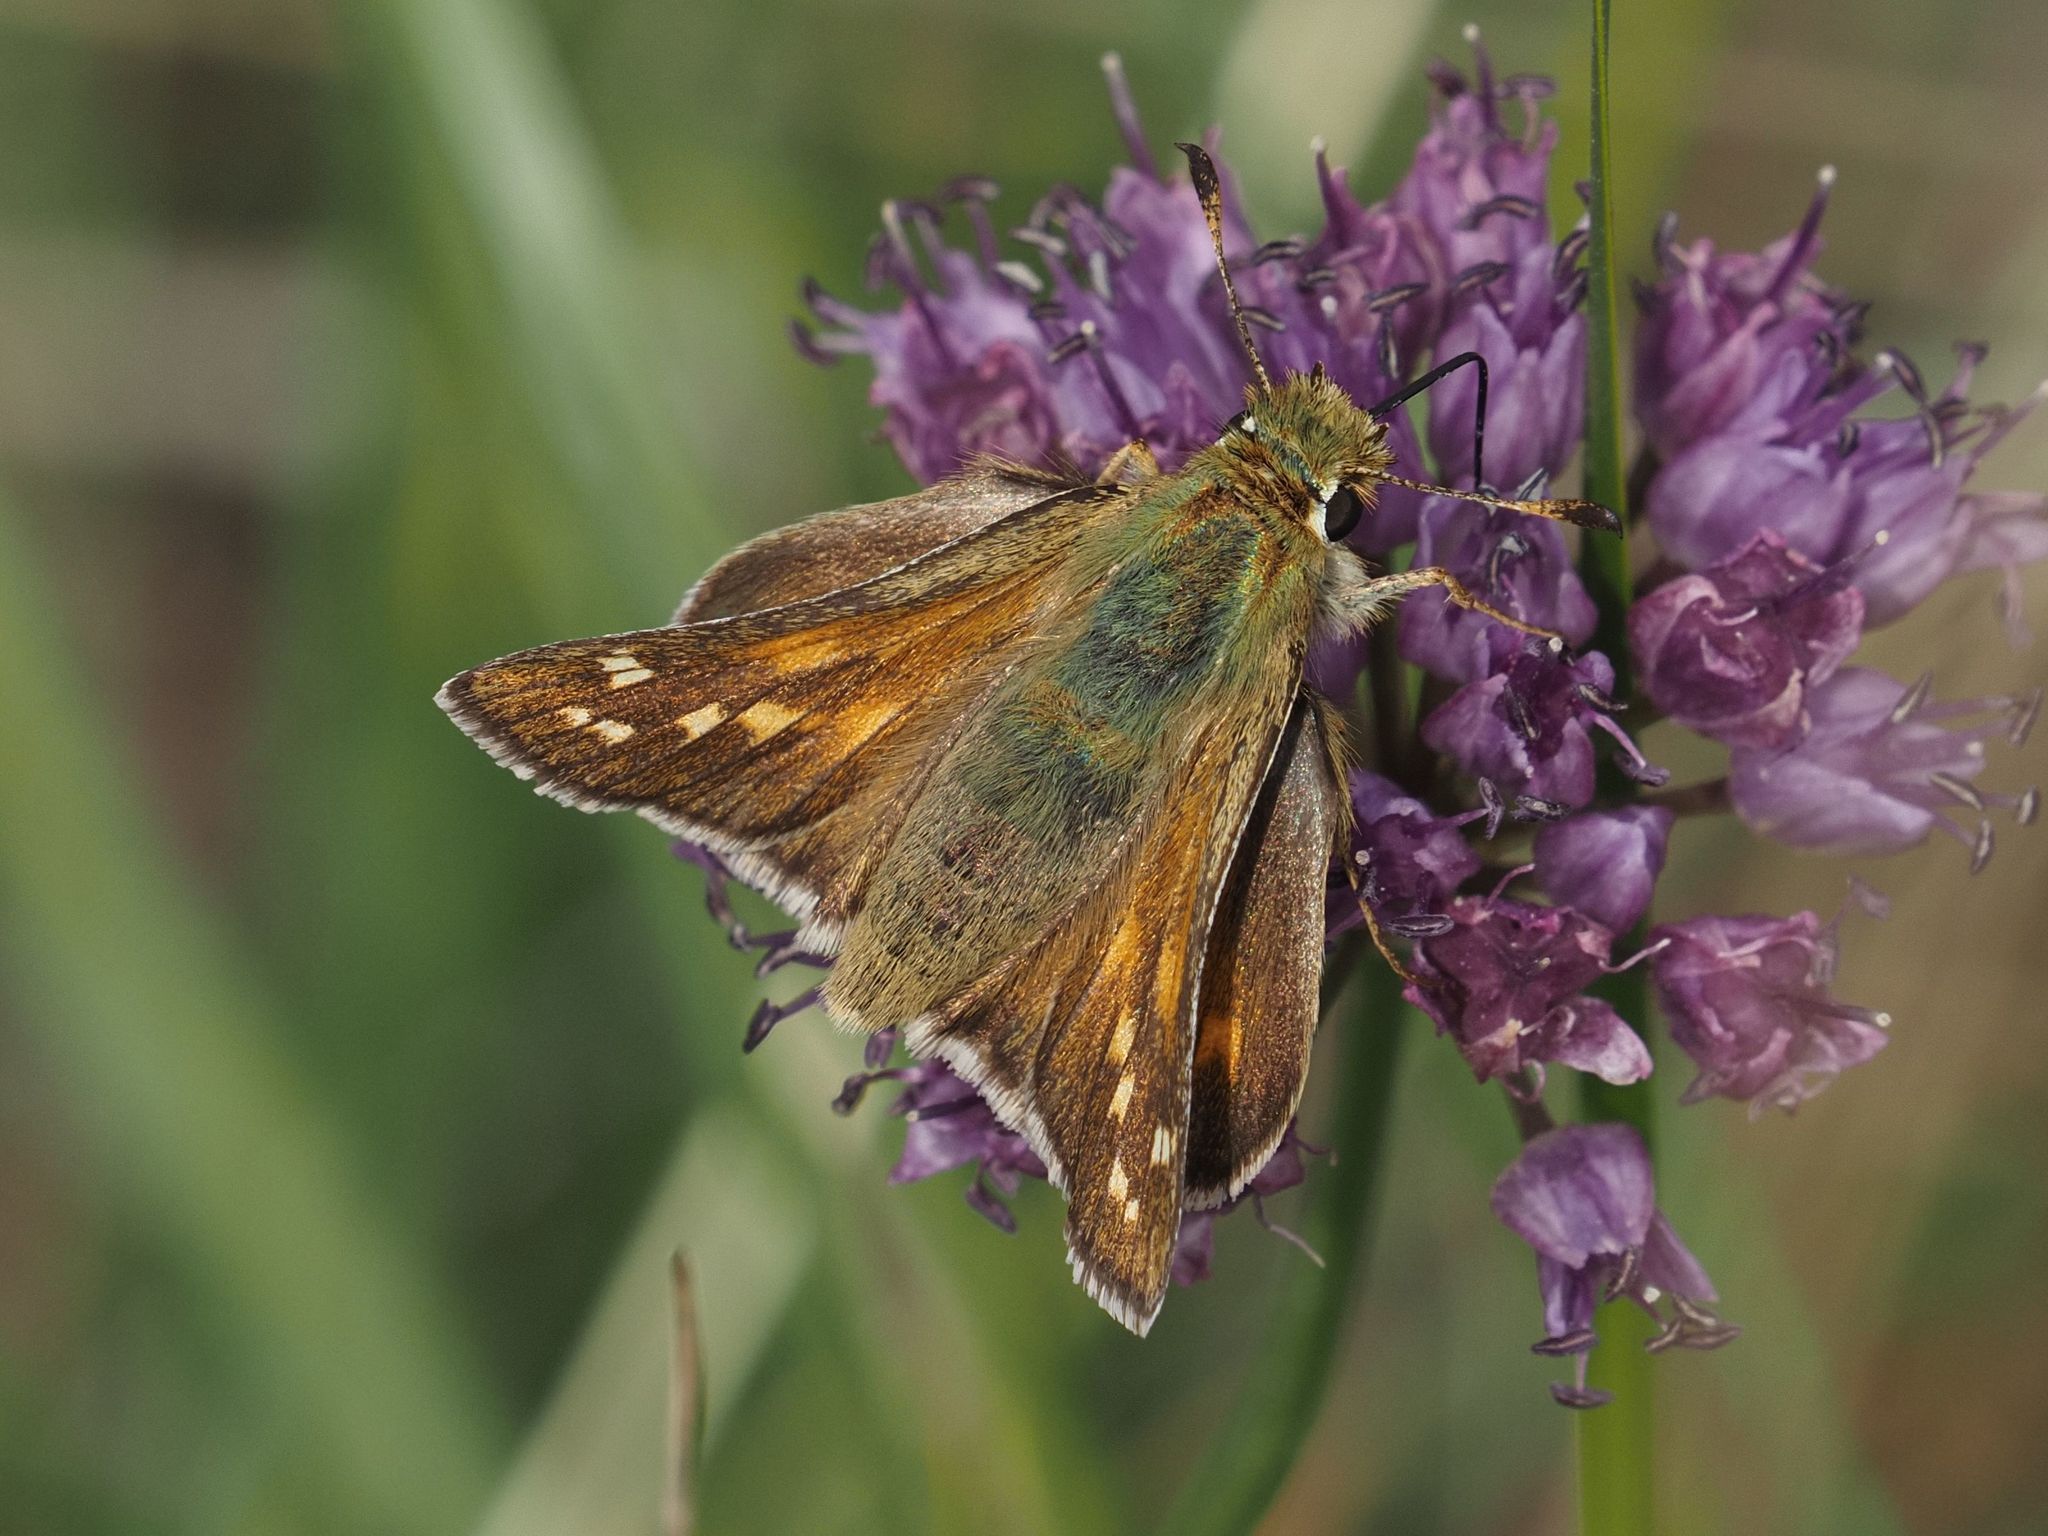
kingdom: Animalia
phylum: Arthropoda
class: Insecta
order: Lepidoptera
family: Hesperiidae
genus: Hesperia
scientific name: Hesperia comma
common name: Common branded skipper
